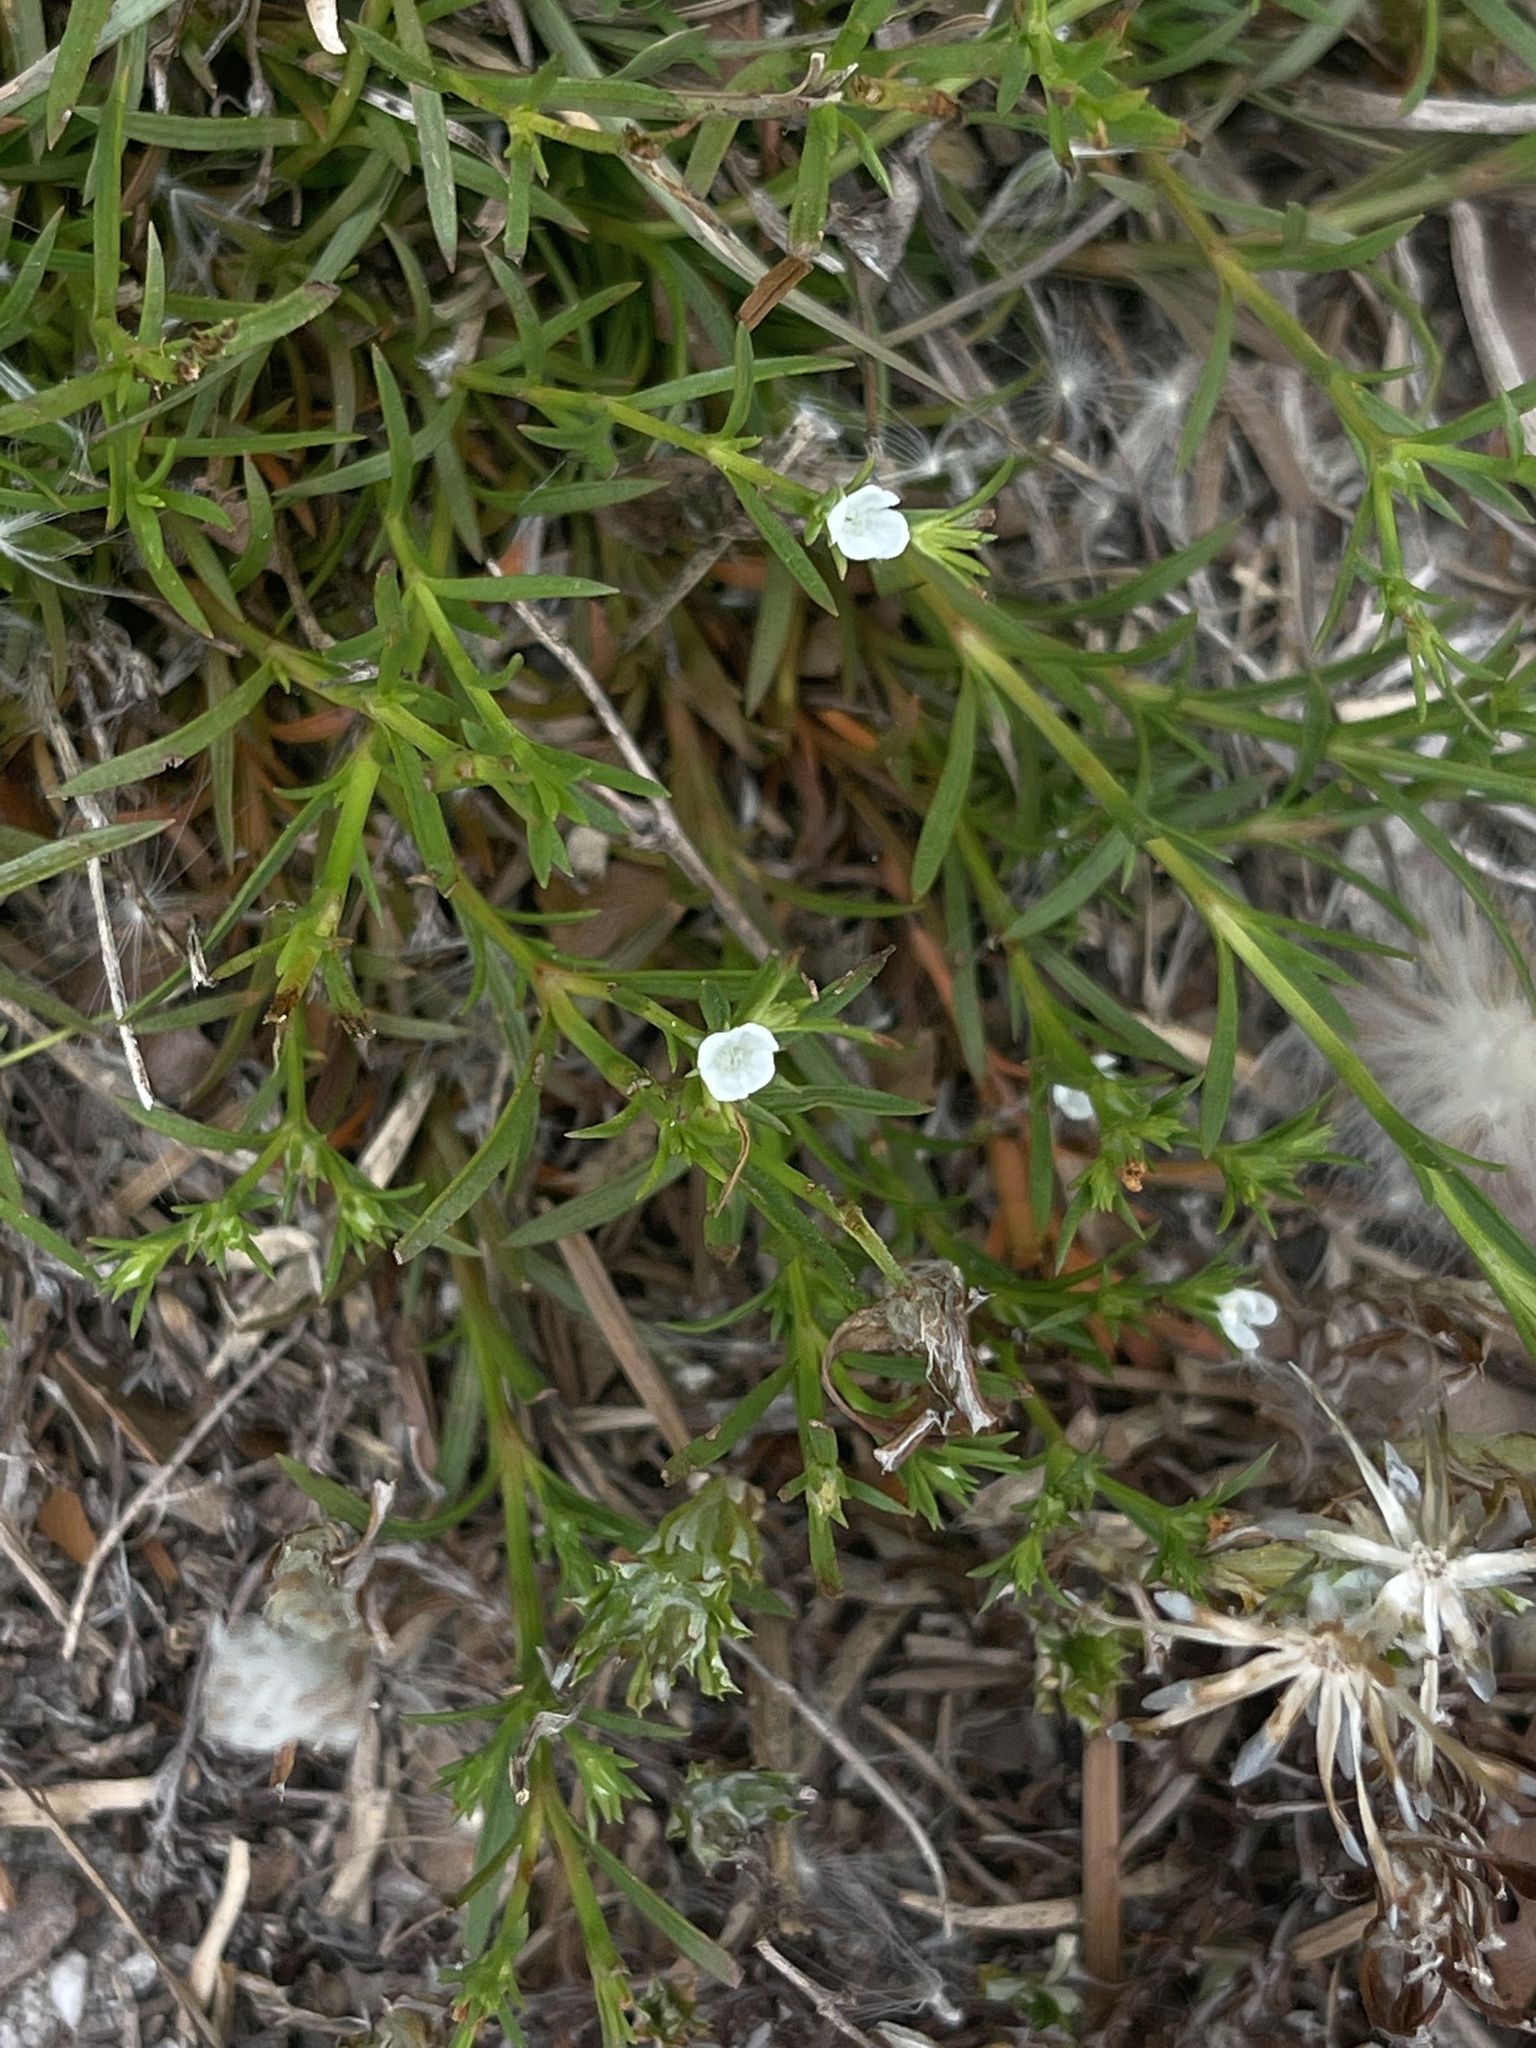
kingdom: Plantae
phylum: Tracheophyta
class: Magnoliopsida
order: Lamiales
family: Tetrachondraceae
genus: Polypremum
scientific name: Polypremum procumbens
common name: Juniper-leaf
